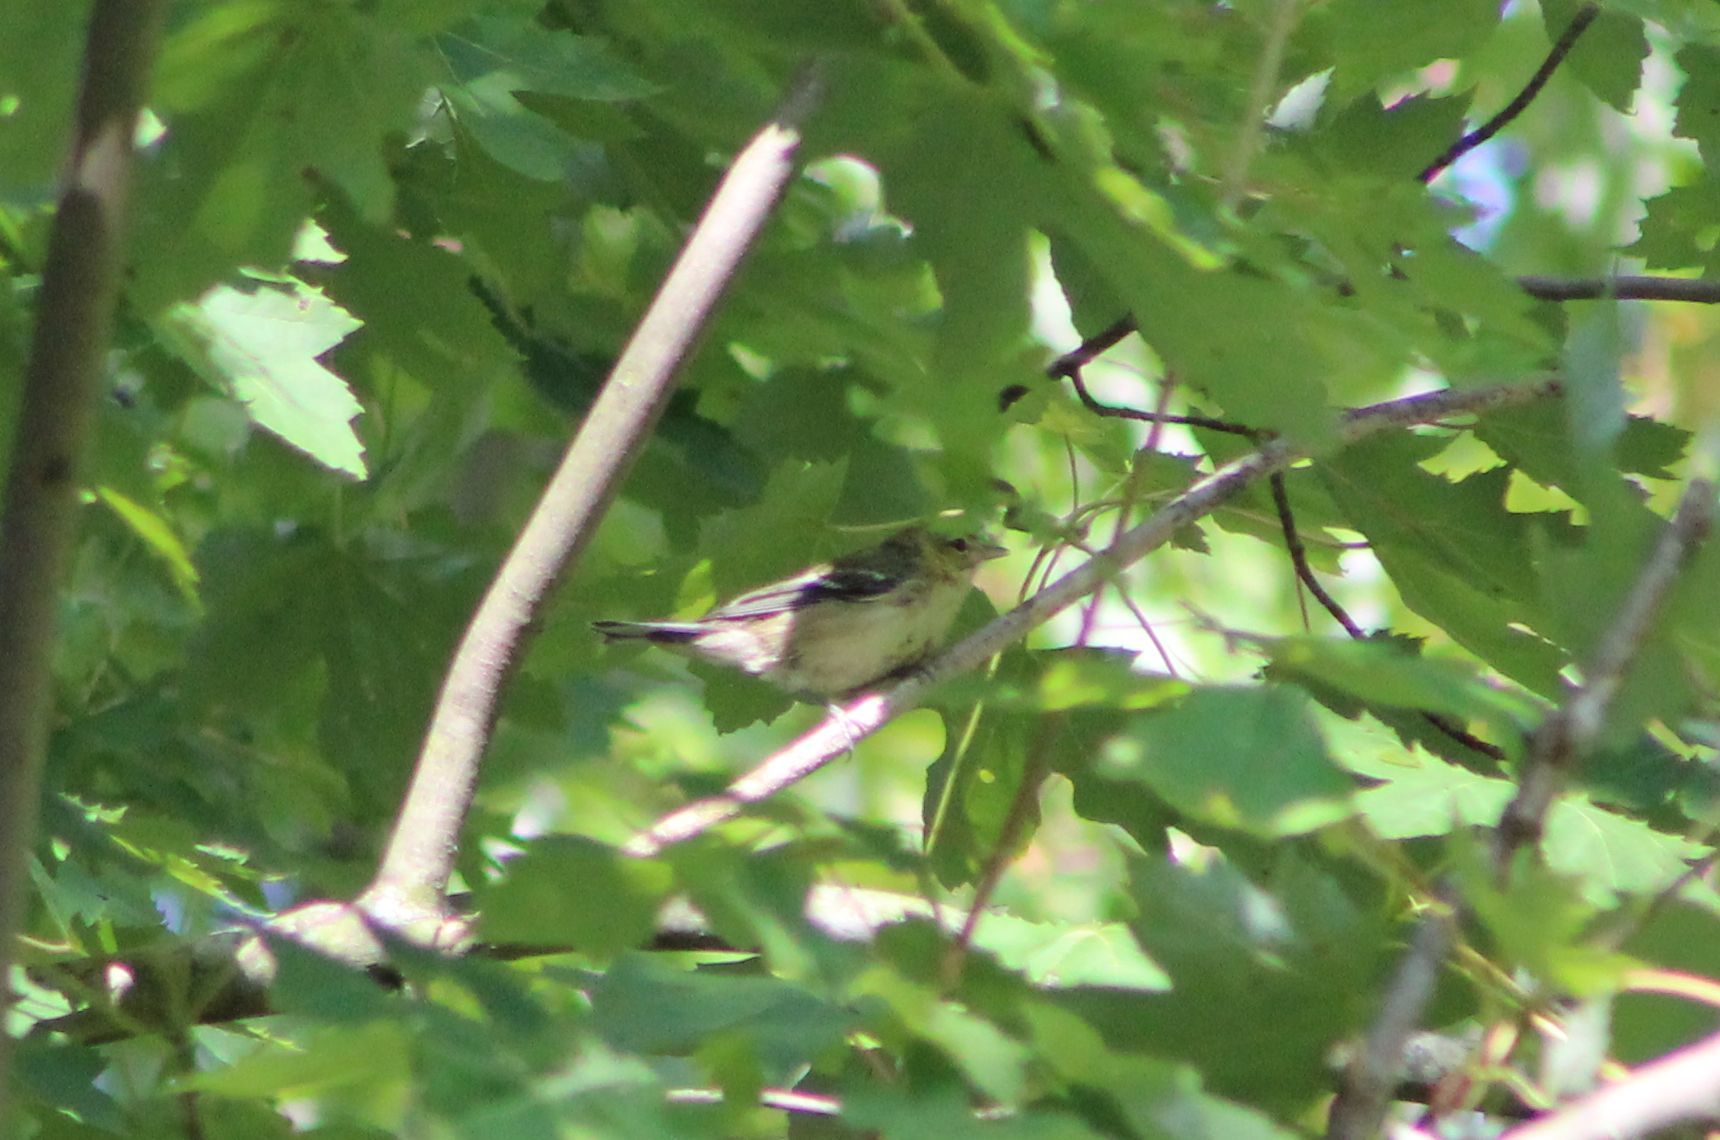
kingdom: Animalia
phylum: Chordata
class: Aves
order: Passeriformes
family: Parulidae
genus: Setophaga
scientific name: Setophaga castanea
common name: Bay-breasted warbler
